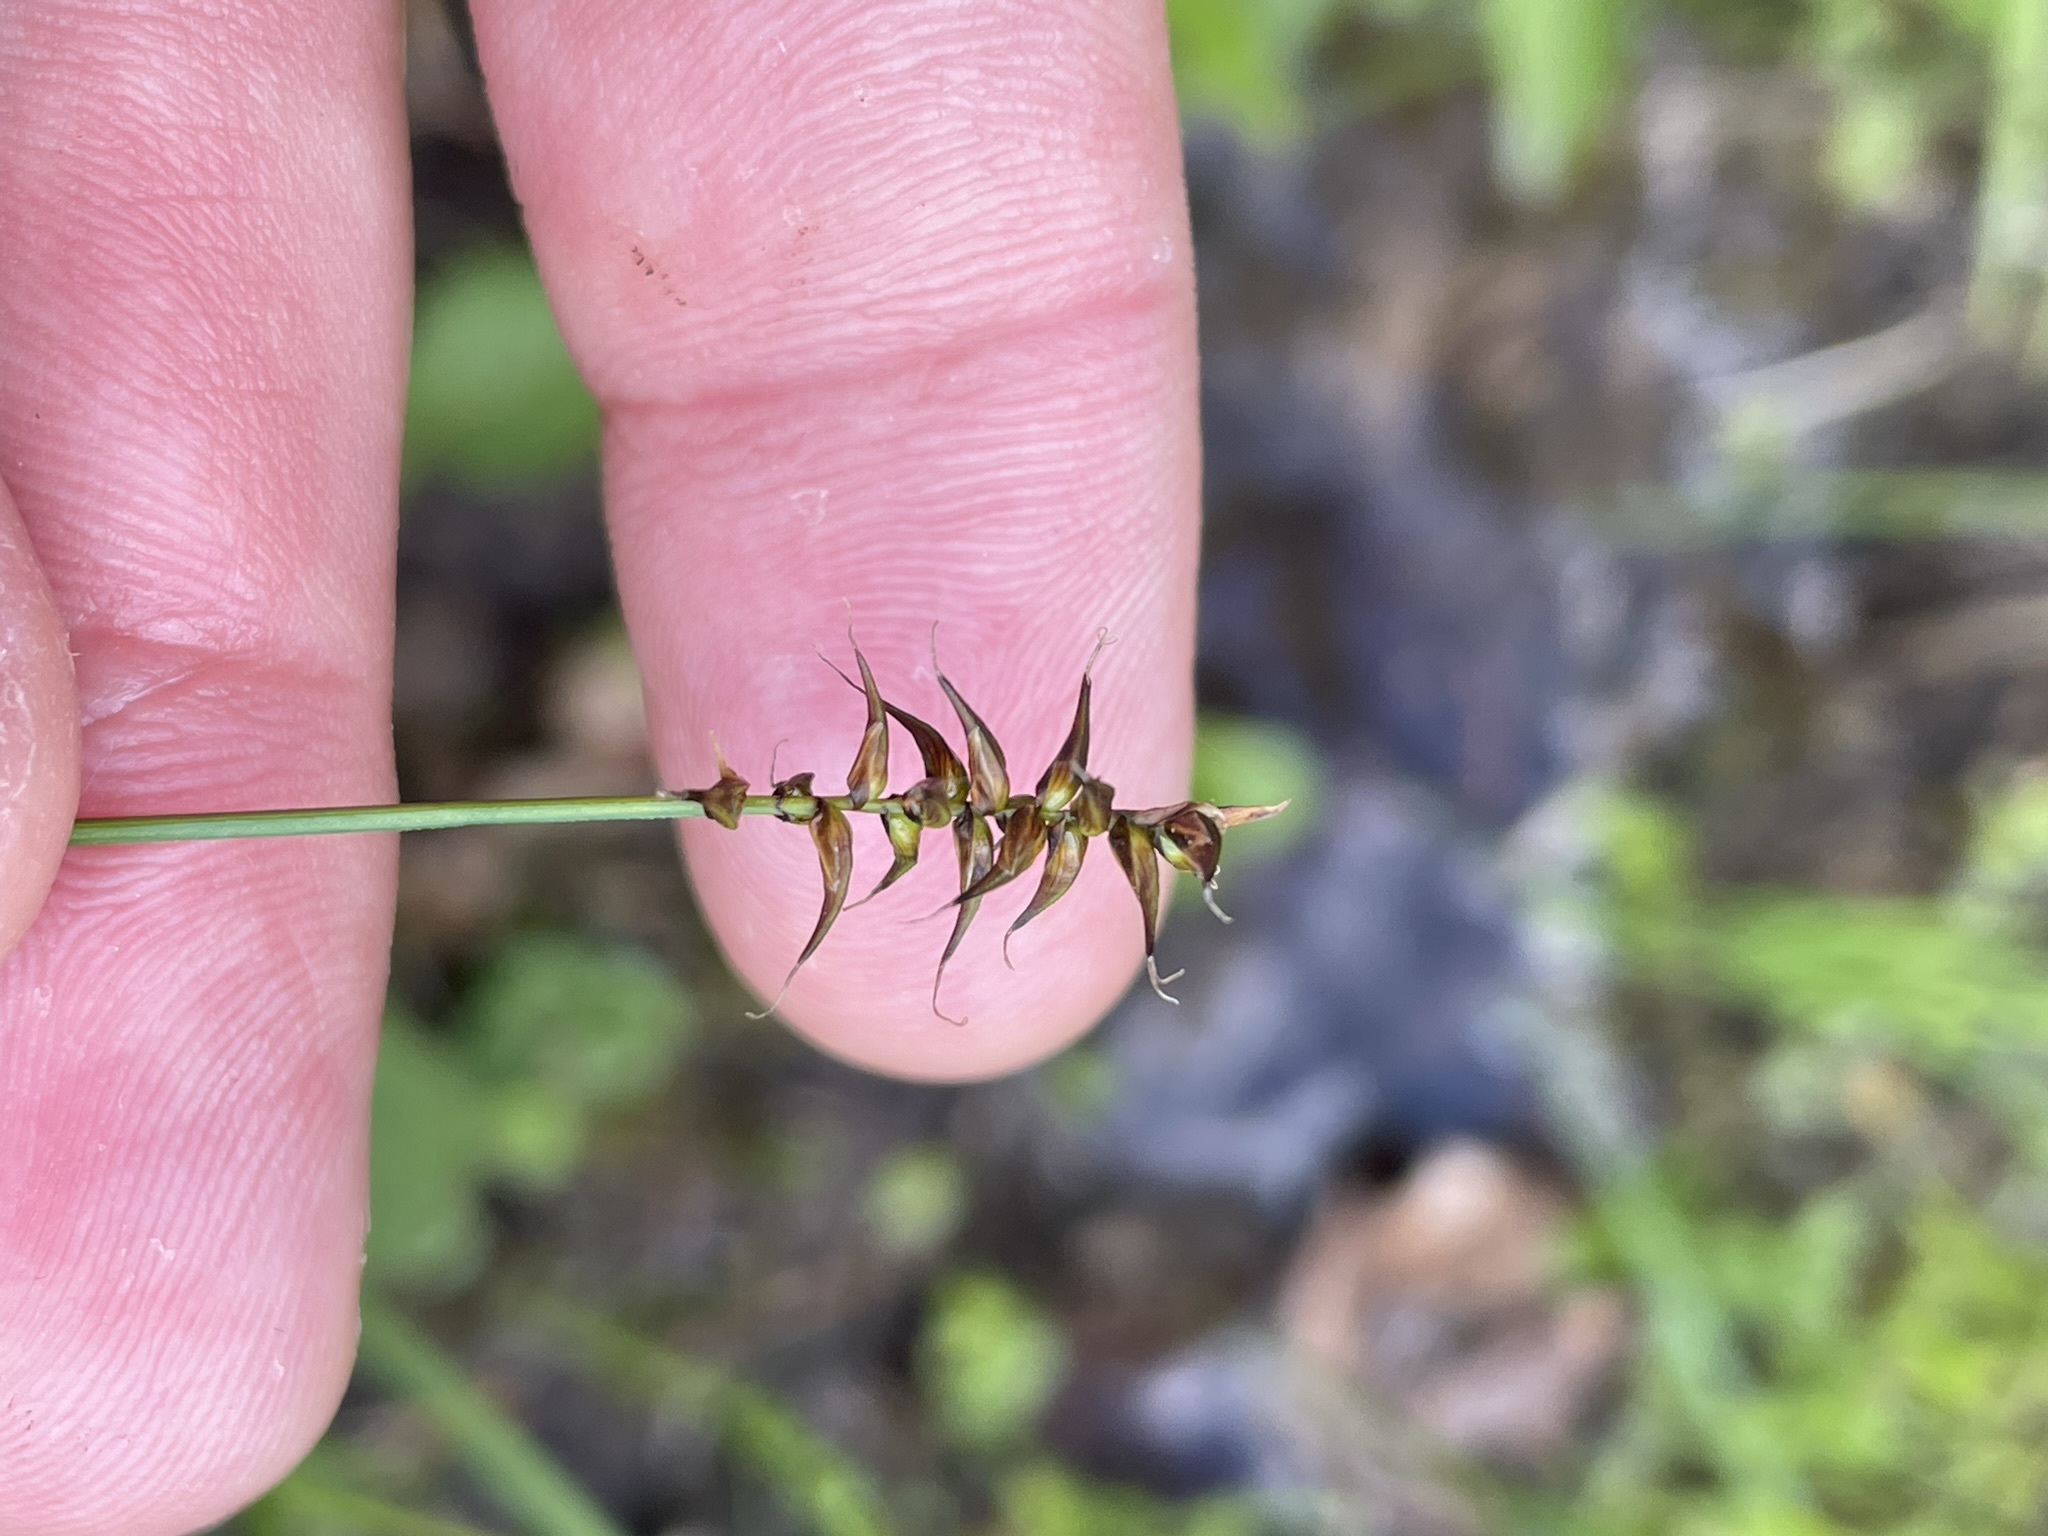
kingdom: Plantae
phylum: Tracheophyta
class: Liliopsida
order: Poales
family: Cyperaceae
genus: Carex
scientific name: Carex davalliana
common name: Davall's sedge
